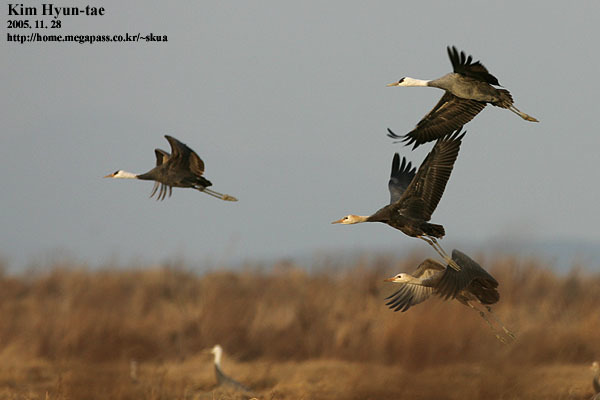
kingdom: Animalia
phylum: Chordata
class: Aves
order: Gruiformes
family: Gruidae
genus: Grus
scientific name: Grus monacha
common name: Hooded crane
